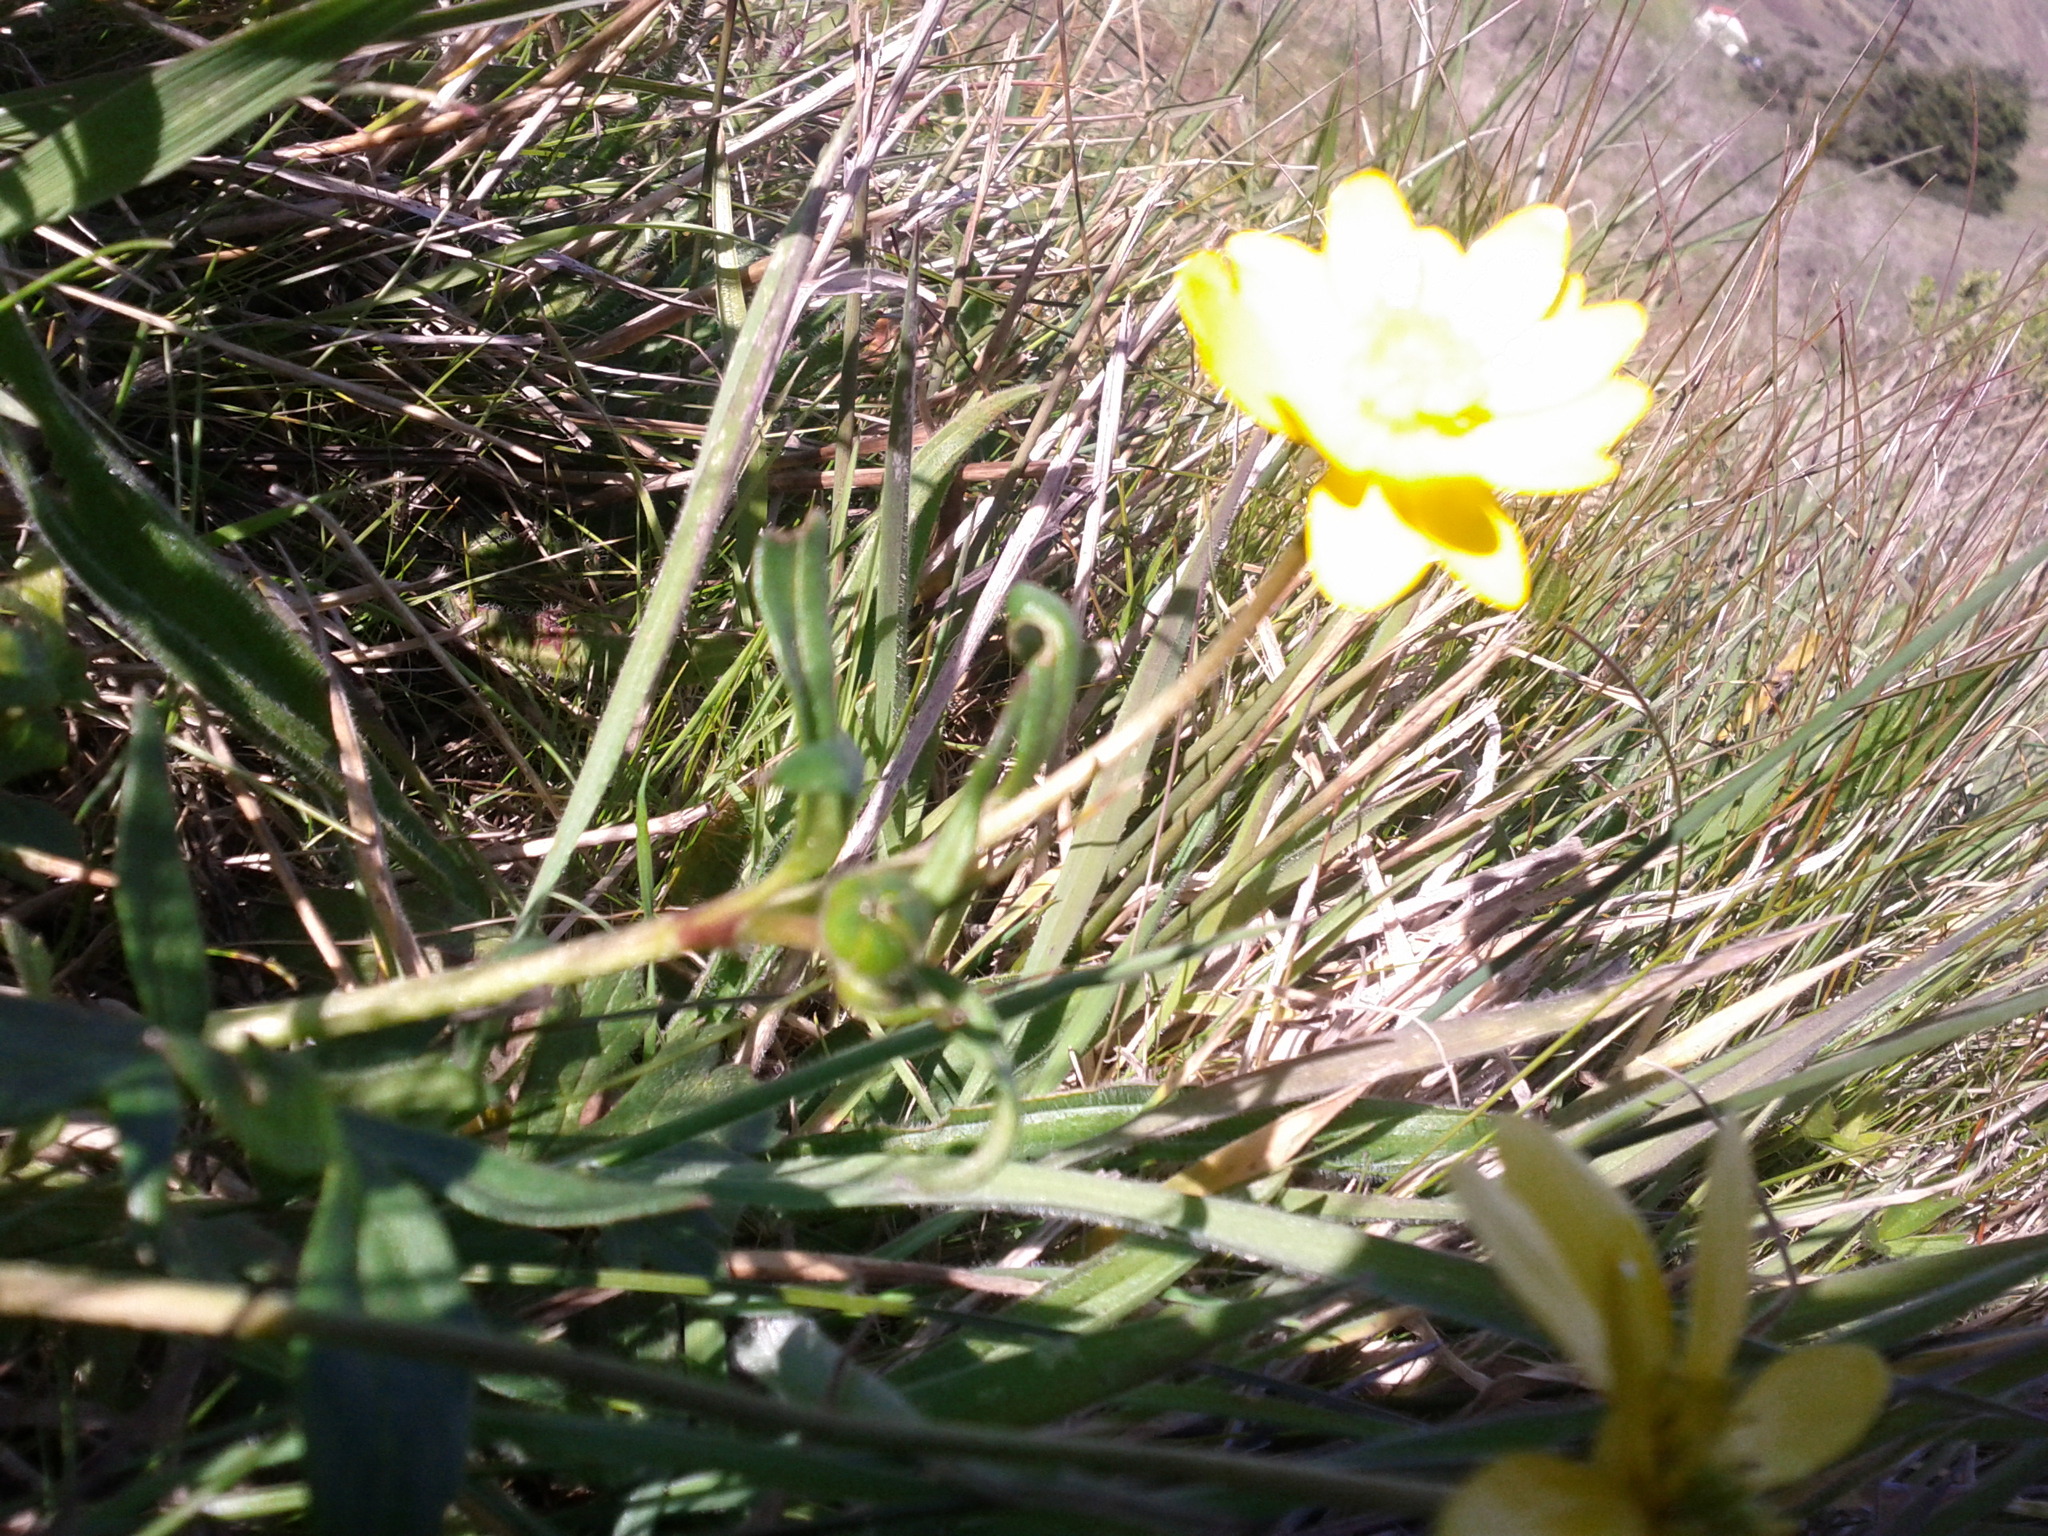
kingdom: Plantae
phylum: Tracheophyta
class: Magnoliopsida
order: Ranunculales
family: Ranunculaceae
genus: Ranunculus
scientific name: Ranunculus californicus
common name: California buttercup
